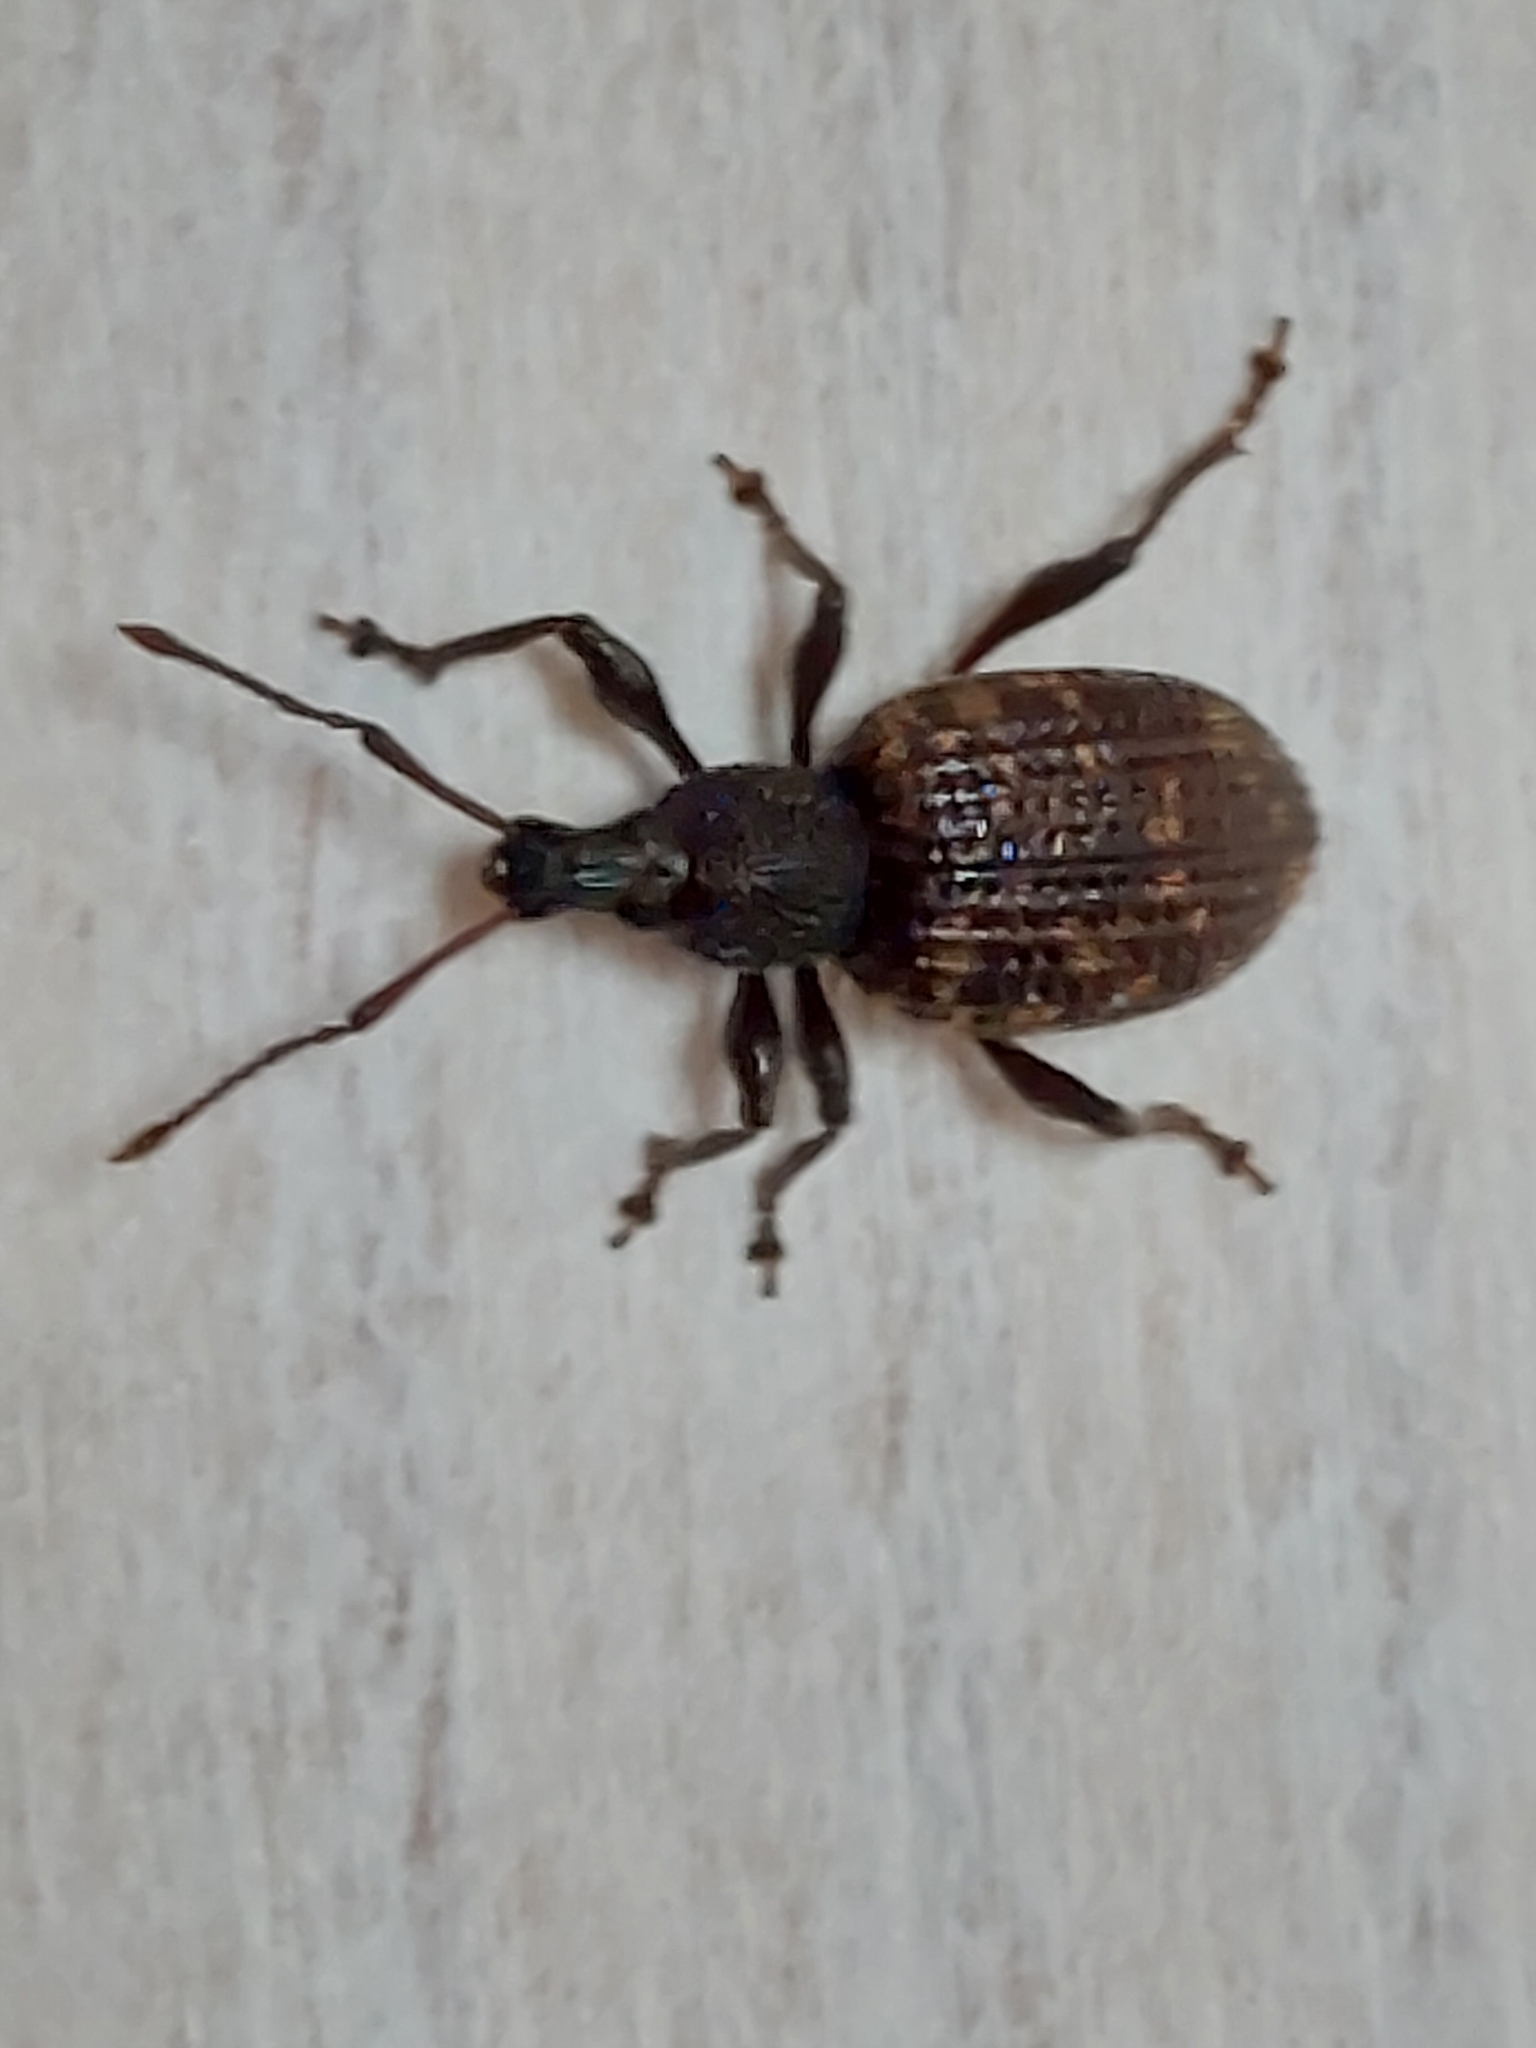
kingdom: Animalia
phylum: Arthropoda
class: Insecta
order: Coleoptera
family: Curculionidae
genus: Otiorhynchus
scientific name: Otiorhynchus sulcatus
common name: Black vine weevil
